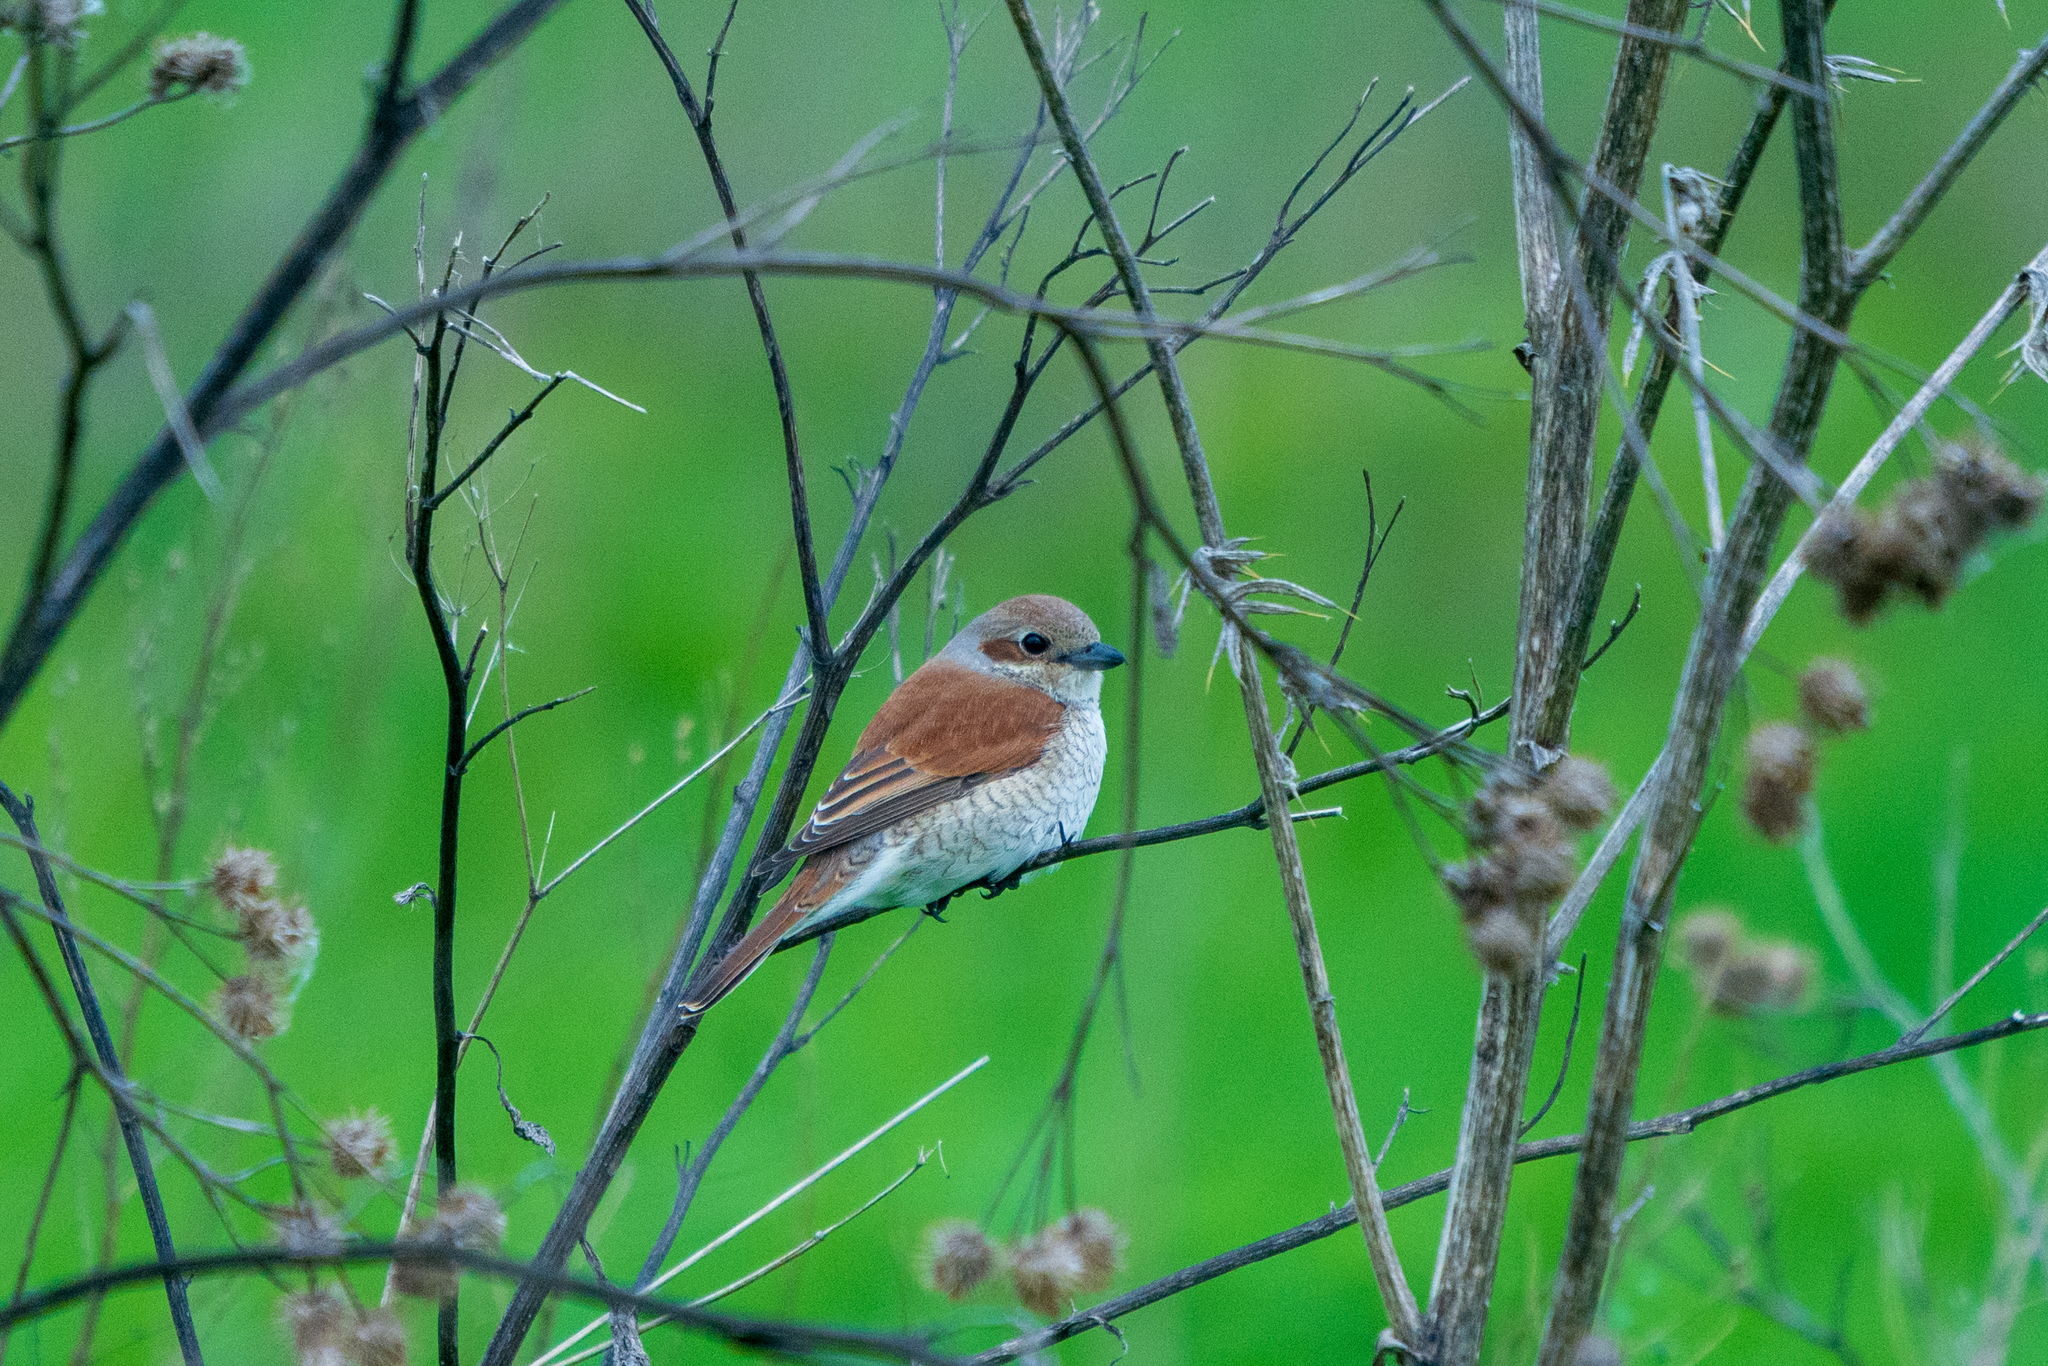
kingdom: Animalia
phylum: Chordata
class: Aves
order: Passeriformes
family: Laniidae
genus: Lanius
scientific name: Lanius collurio
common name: Red-backed shrike
